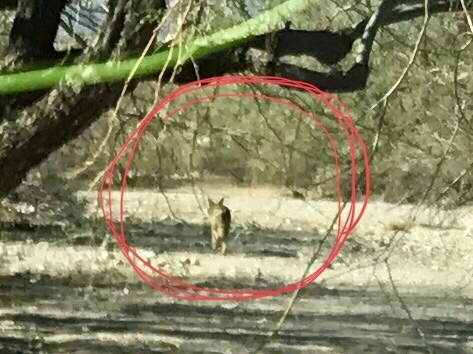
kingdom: Animalia
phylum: Chordata
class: Mammalia
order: Carnivora
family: Canidae
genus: Canis
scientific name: Canis latrans
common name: Coyote
